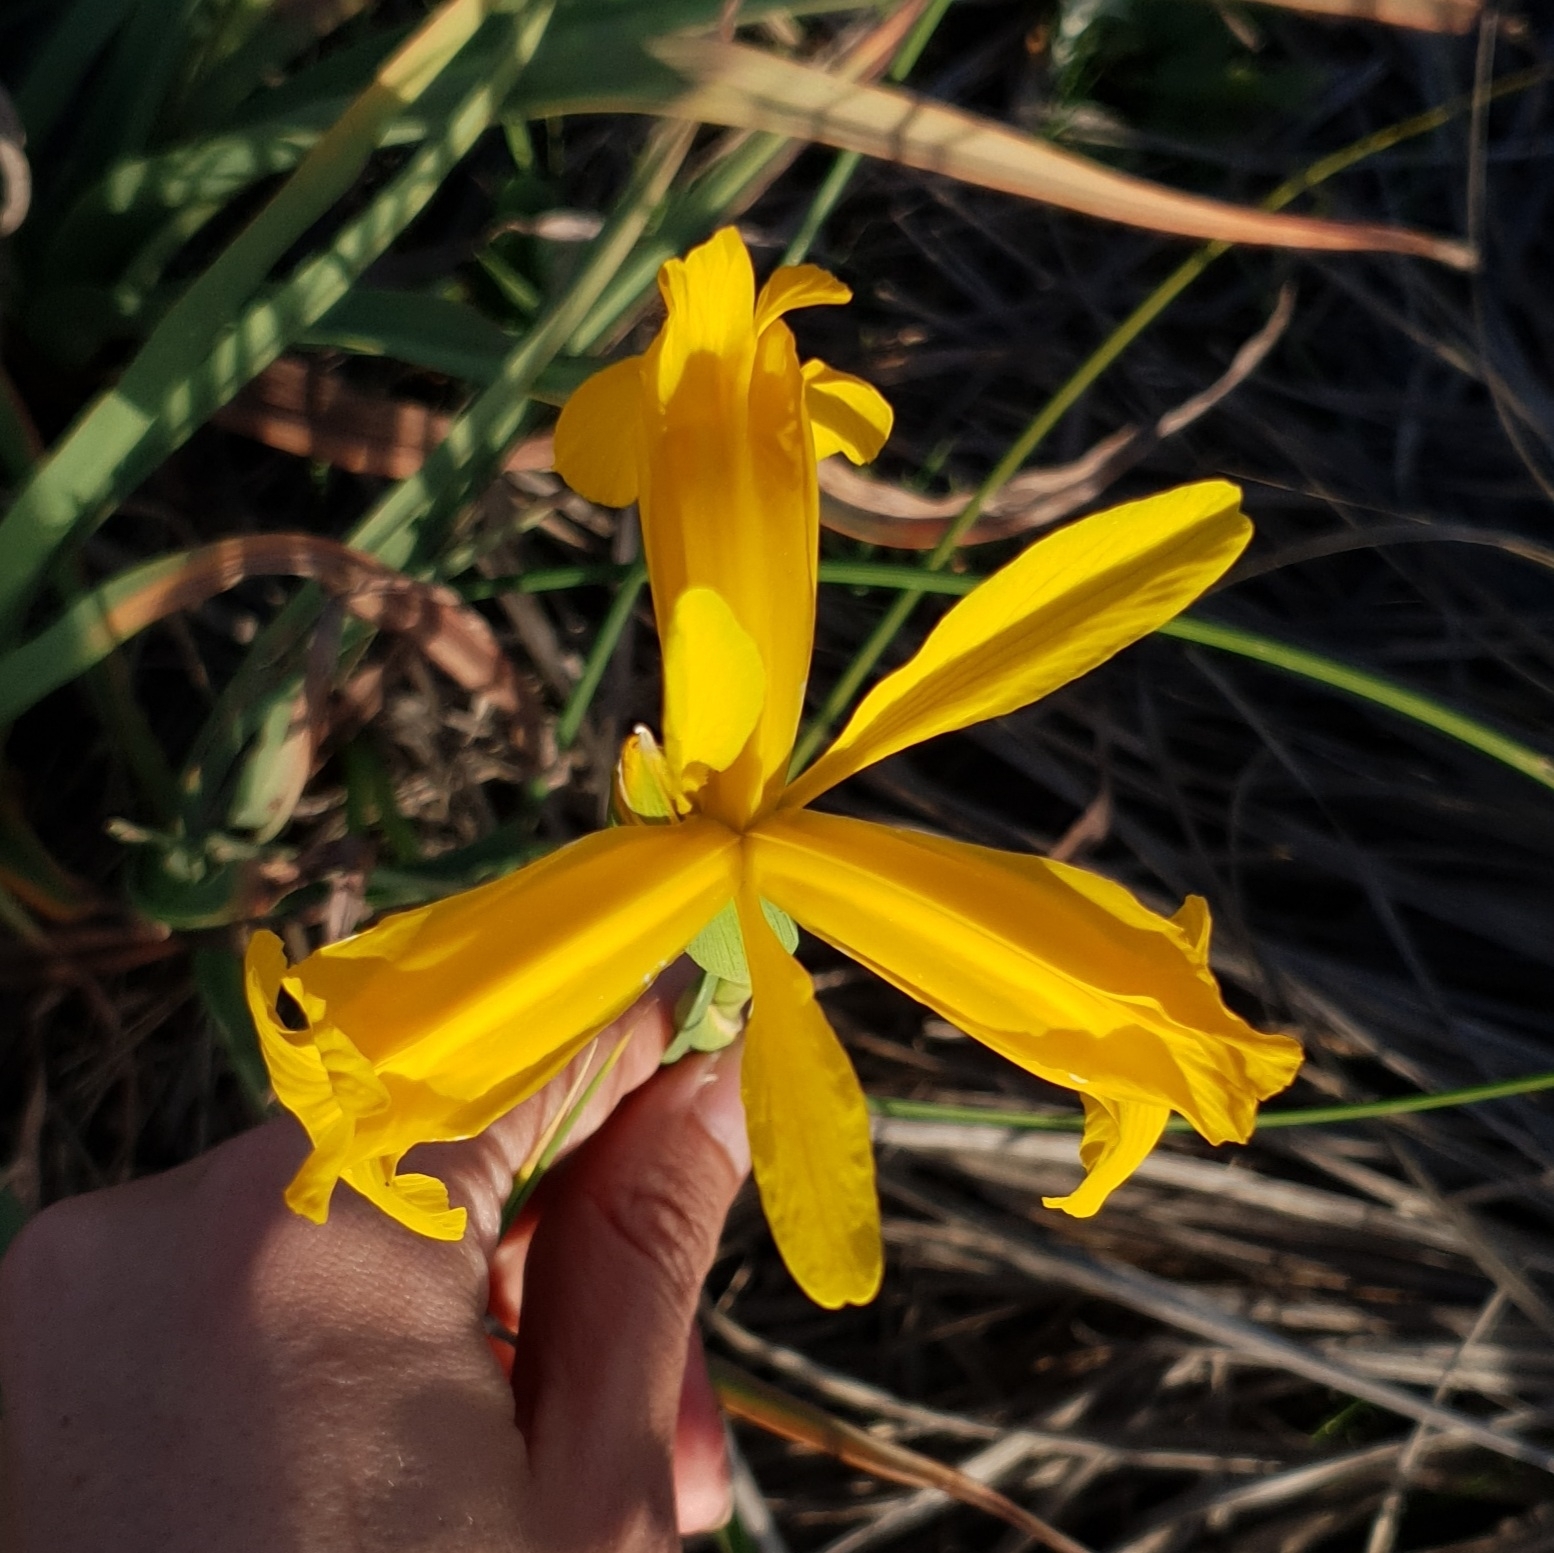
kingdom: Plantae
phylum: Tracheophyta
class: Liliopsida
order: Asparagales
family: Iridaceae
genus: Iris
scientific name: Iris juncea
